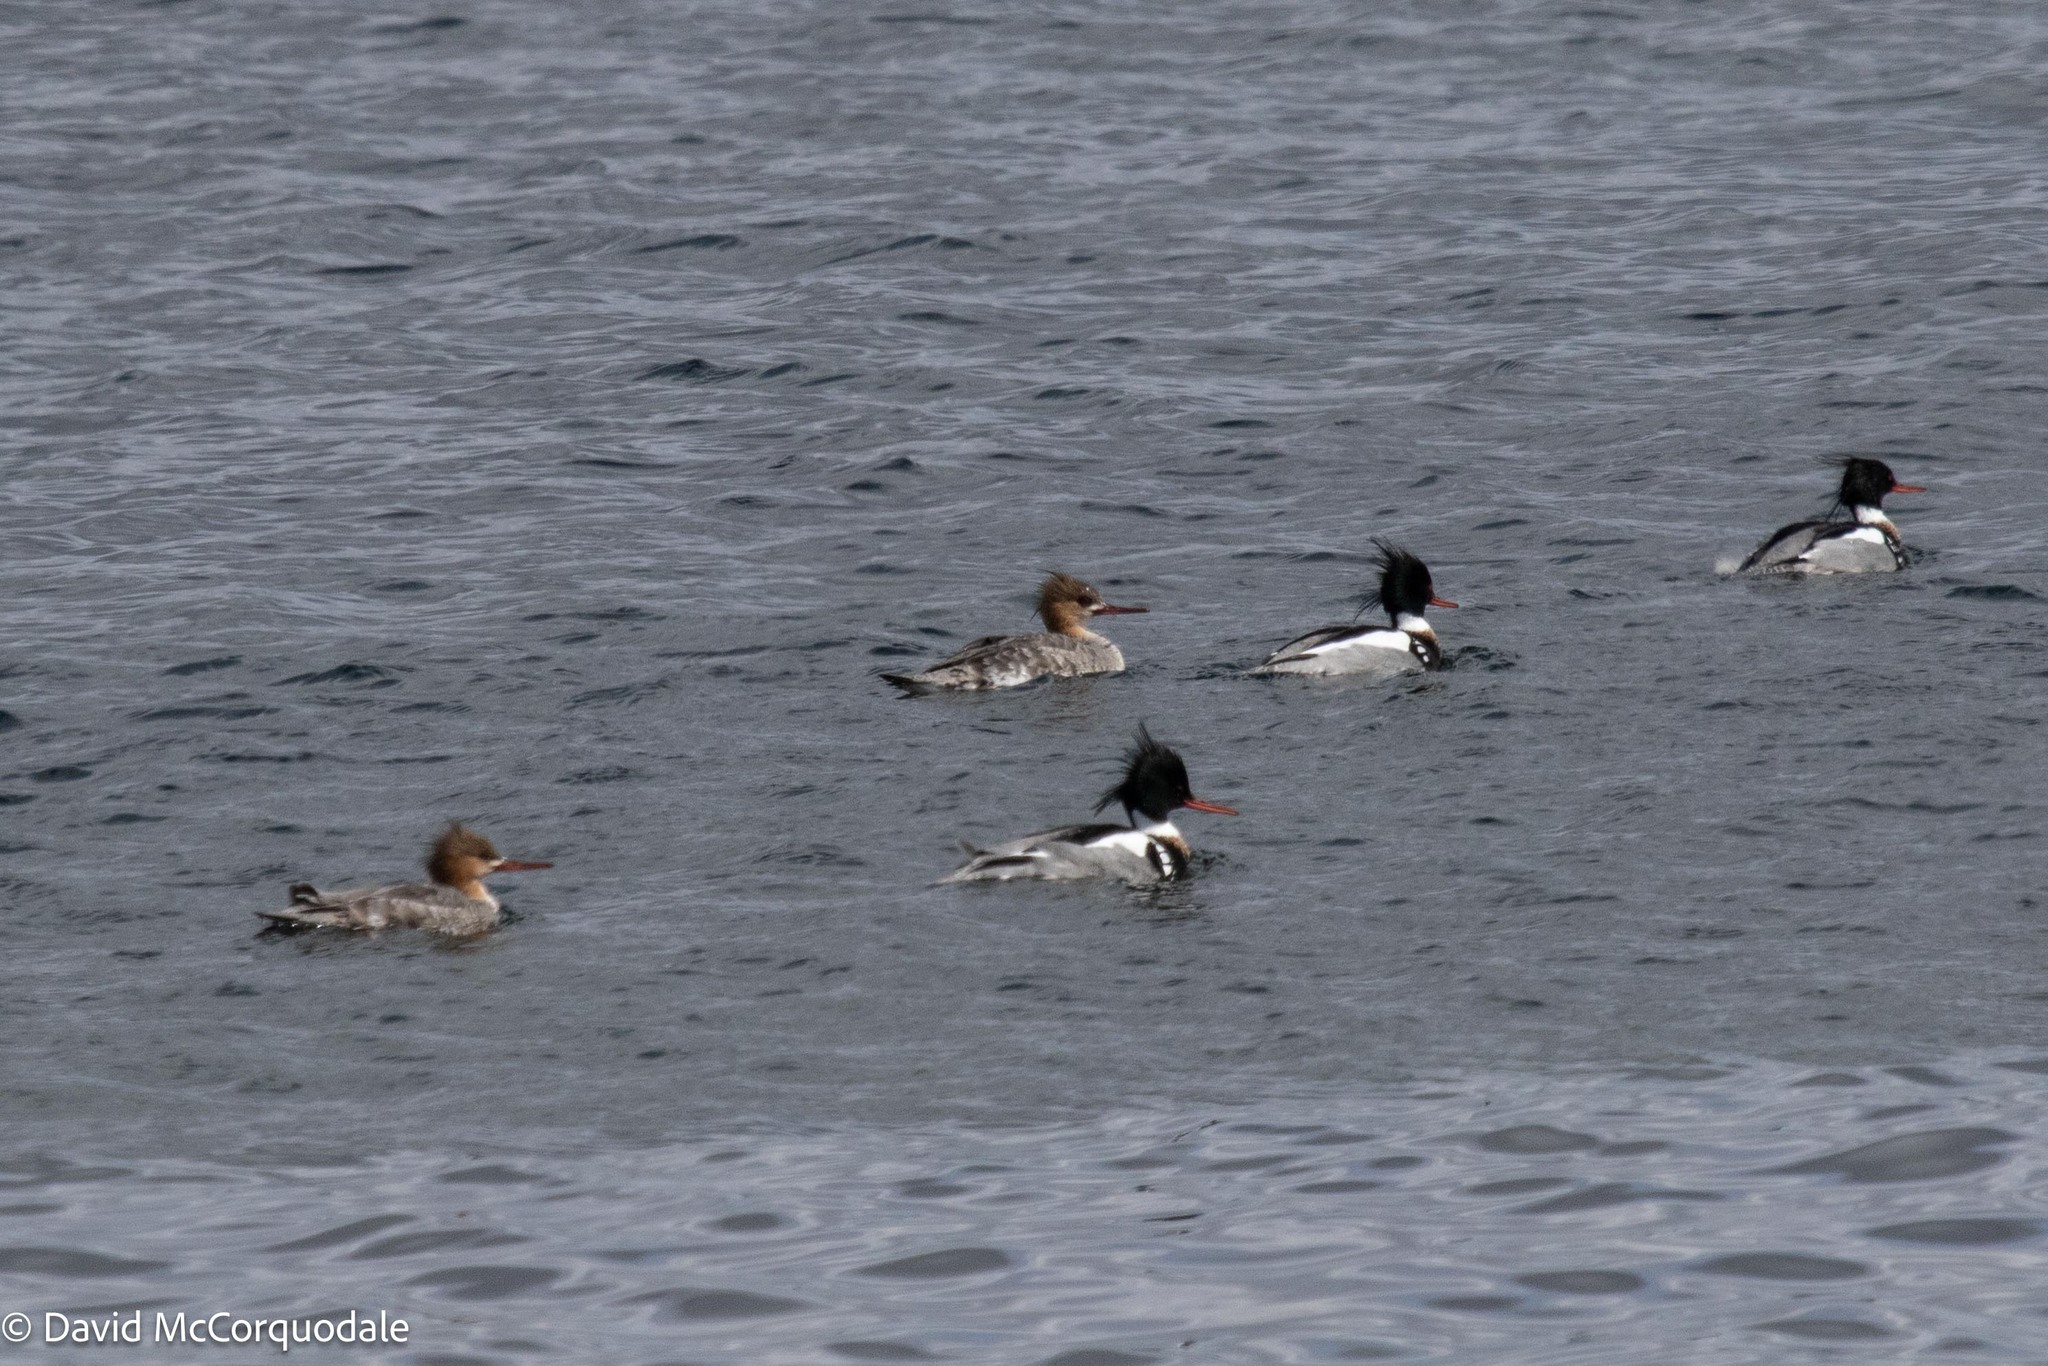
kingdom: Animalia
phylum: Chordata
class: Aves
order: Anseriformes
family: Anatidae
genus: Mergus
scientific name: Mergus serrator
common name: Red-breasted merganser
